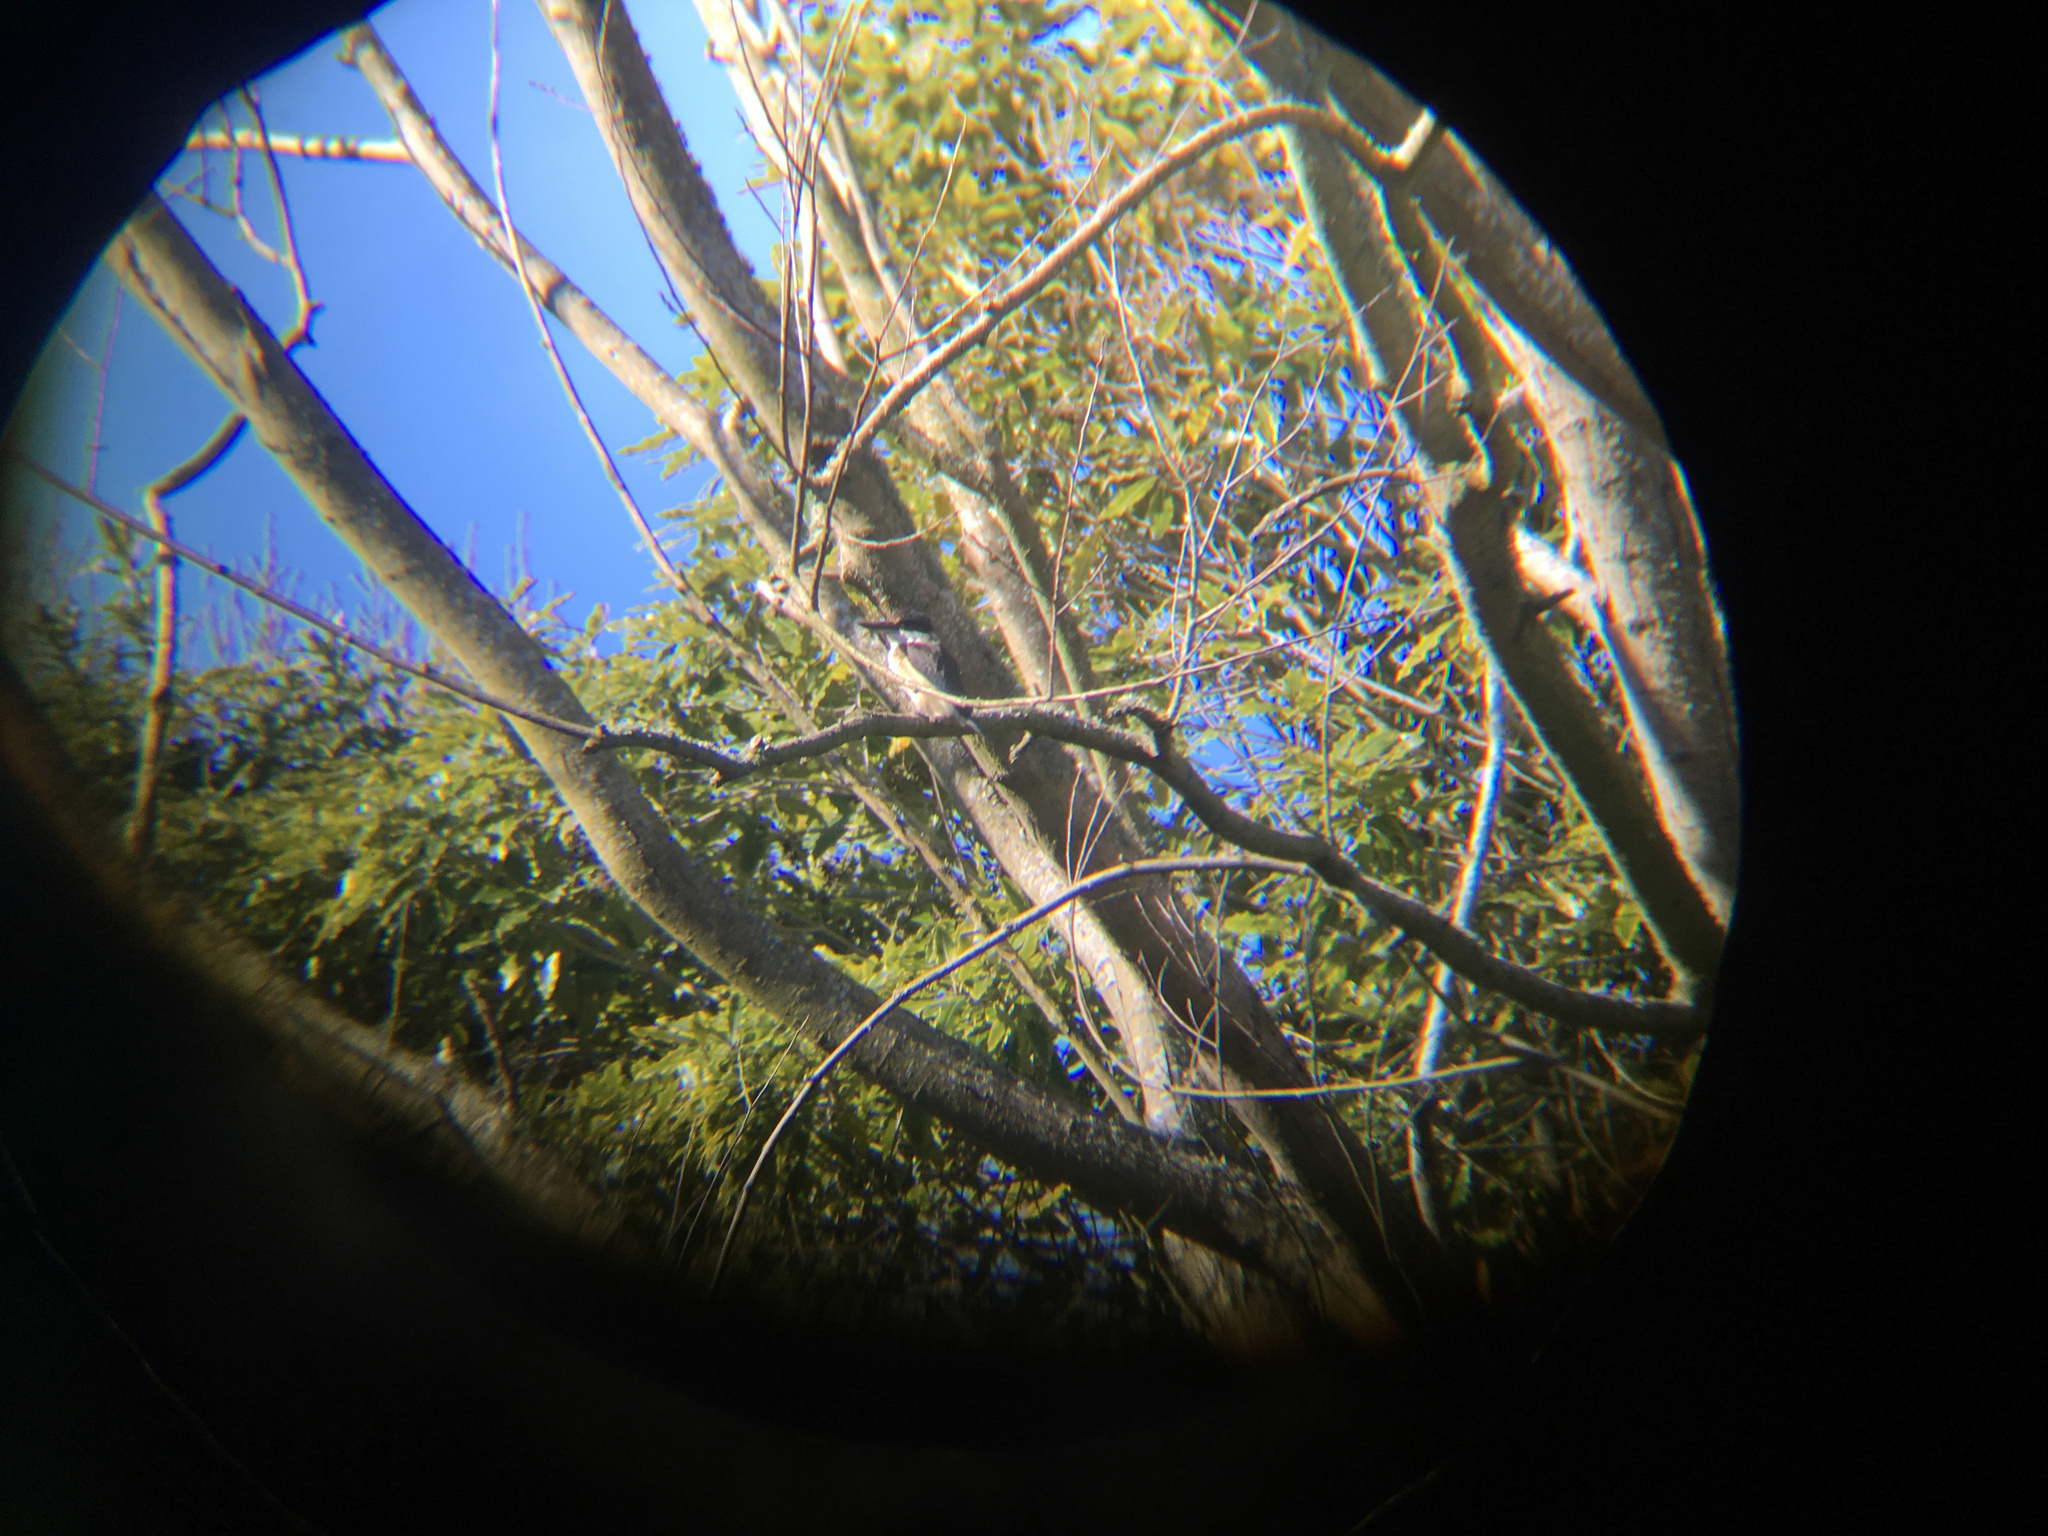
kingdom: Animalia
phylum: Chordata
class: Aves
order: Coraciiformes
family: Alcedinidae
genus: Todiramphus
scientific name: Todiramphus sanctus
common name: Sacred kingfisher
